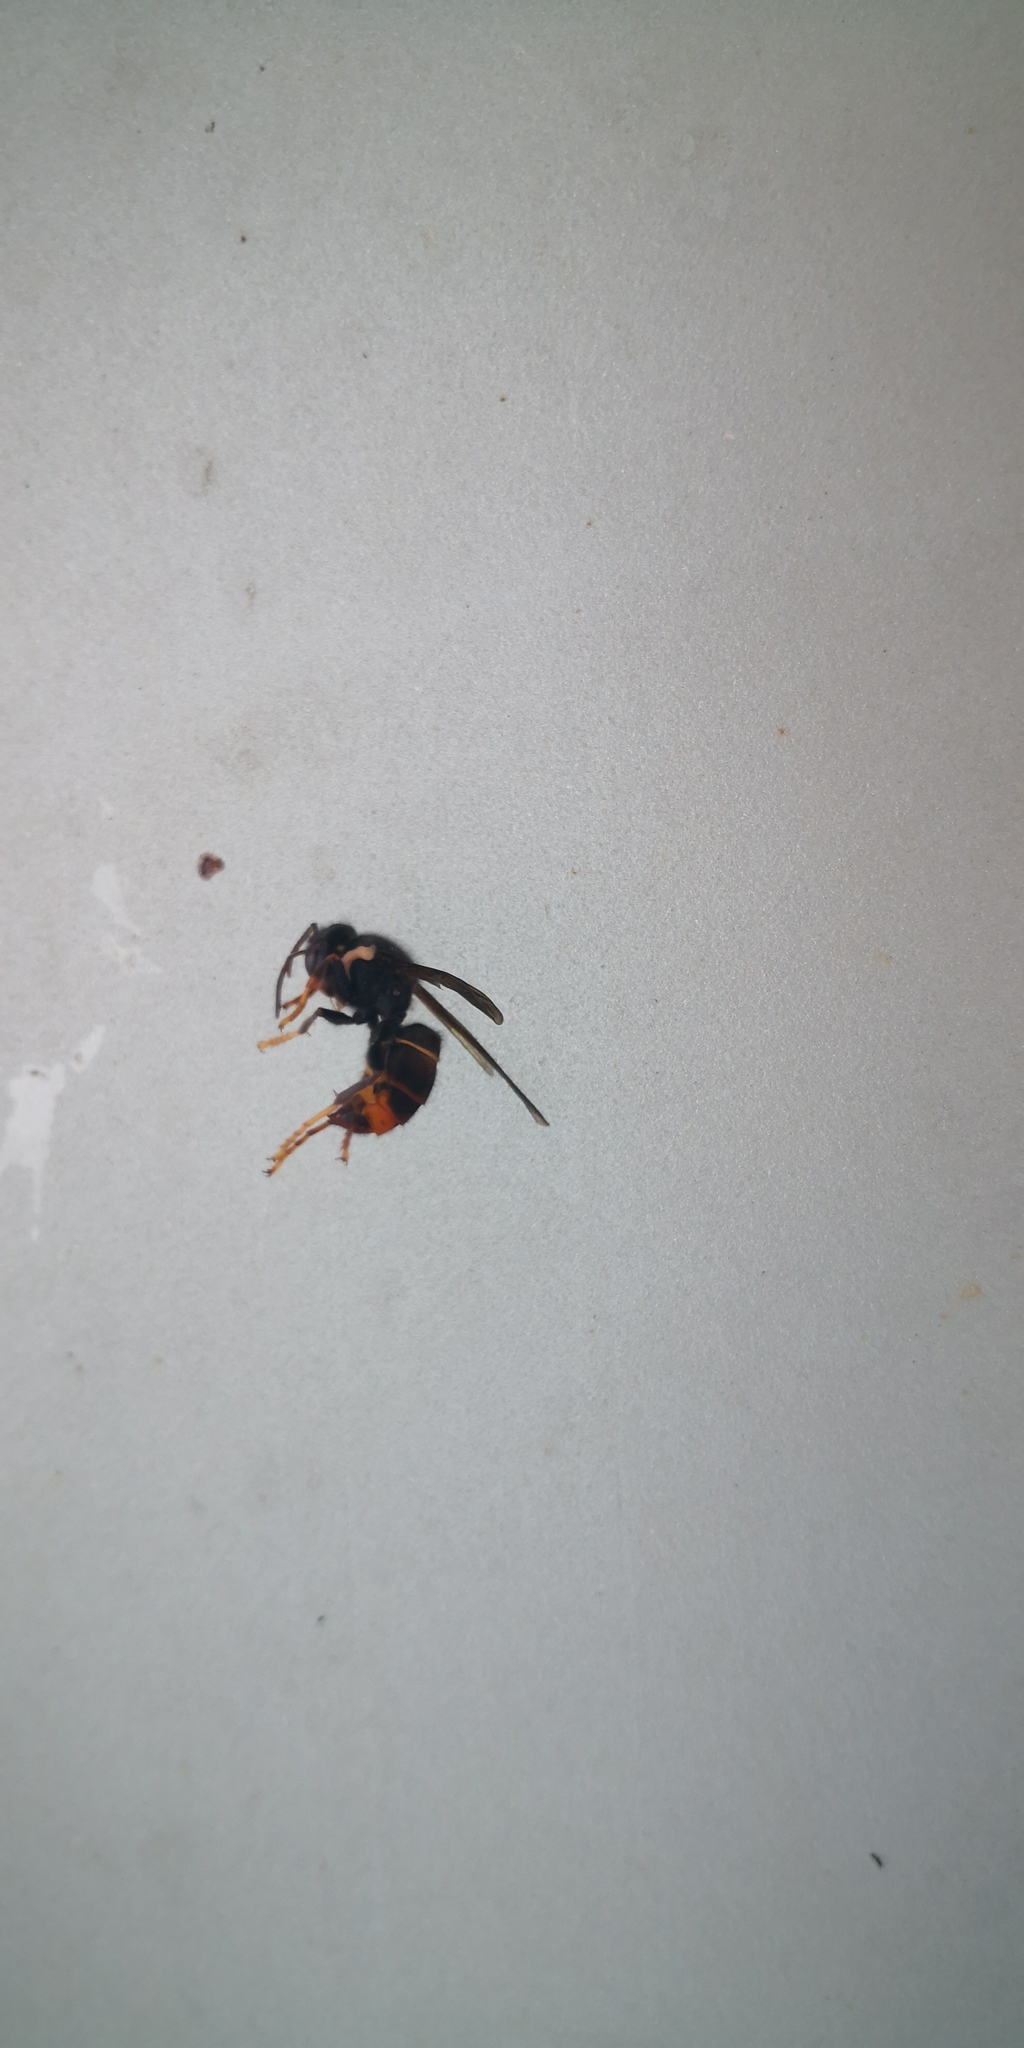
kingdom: Animalia
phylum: Arthropoda
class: Insecta
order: Hymenoptera
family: Vespidae
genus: Vespa
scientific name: Vespa velutina
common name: Asian hornet
